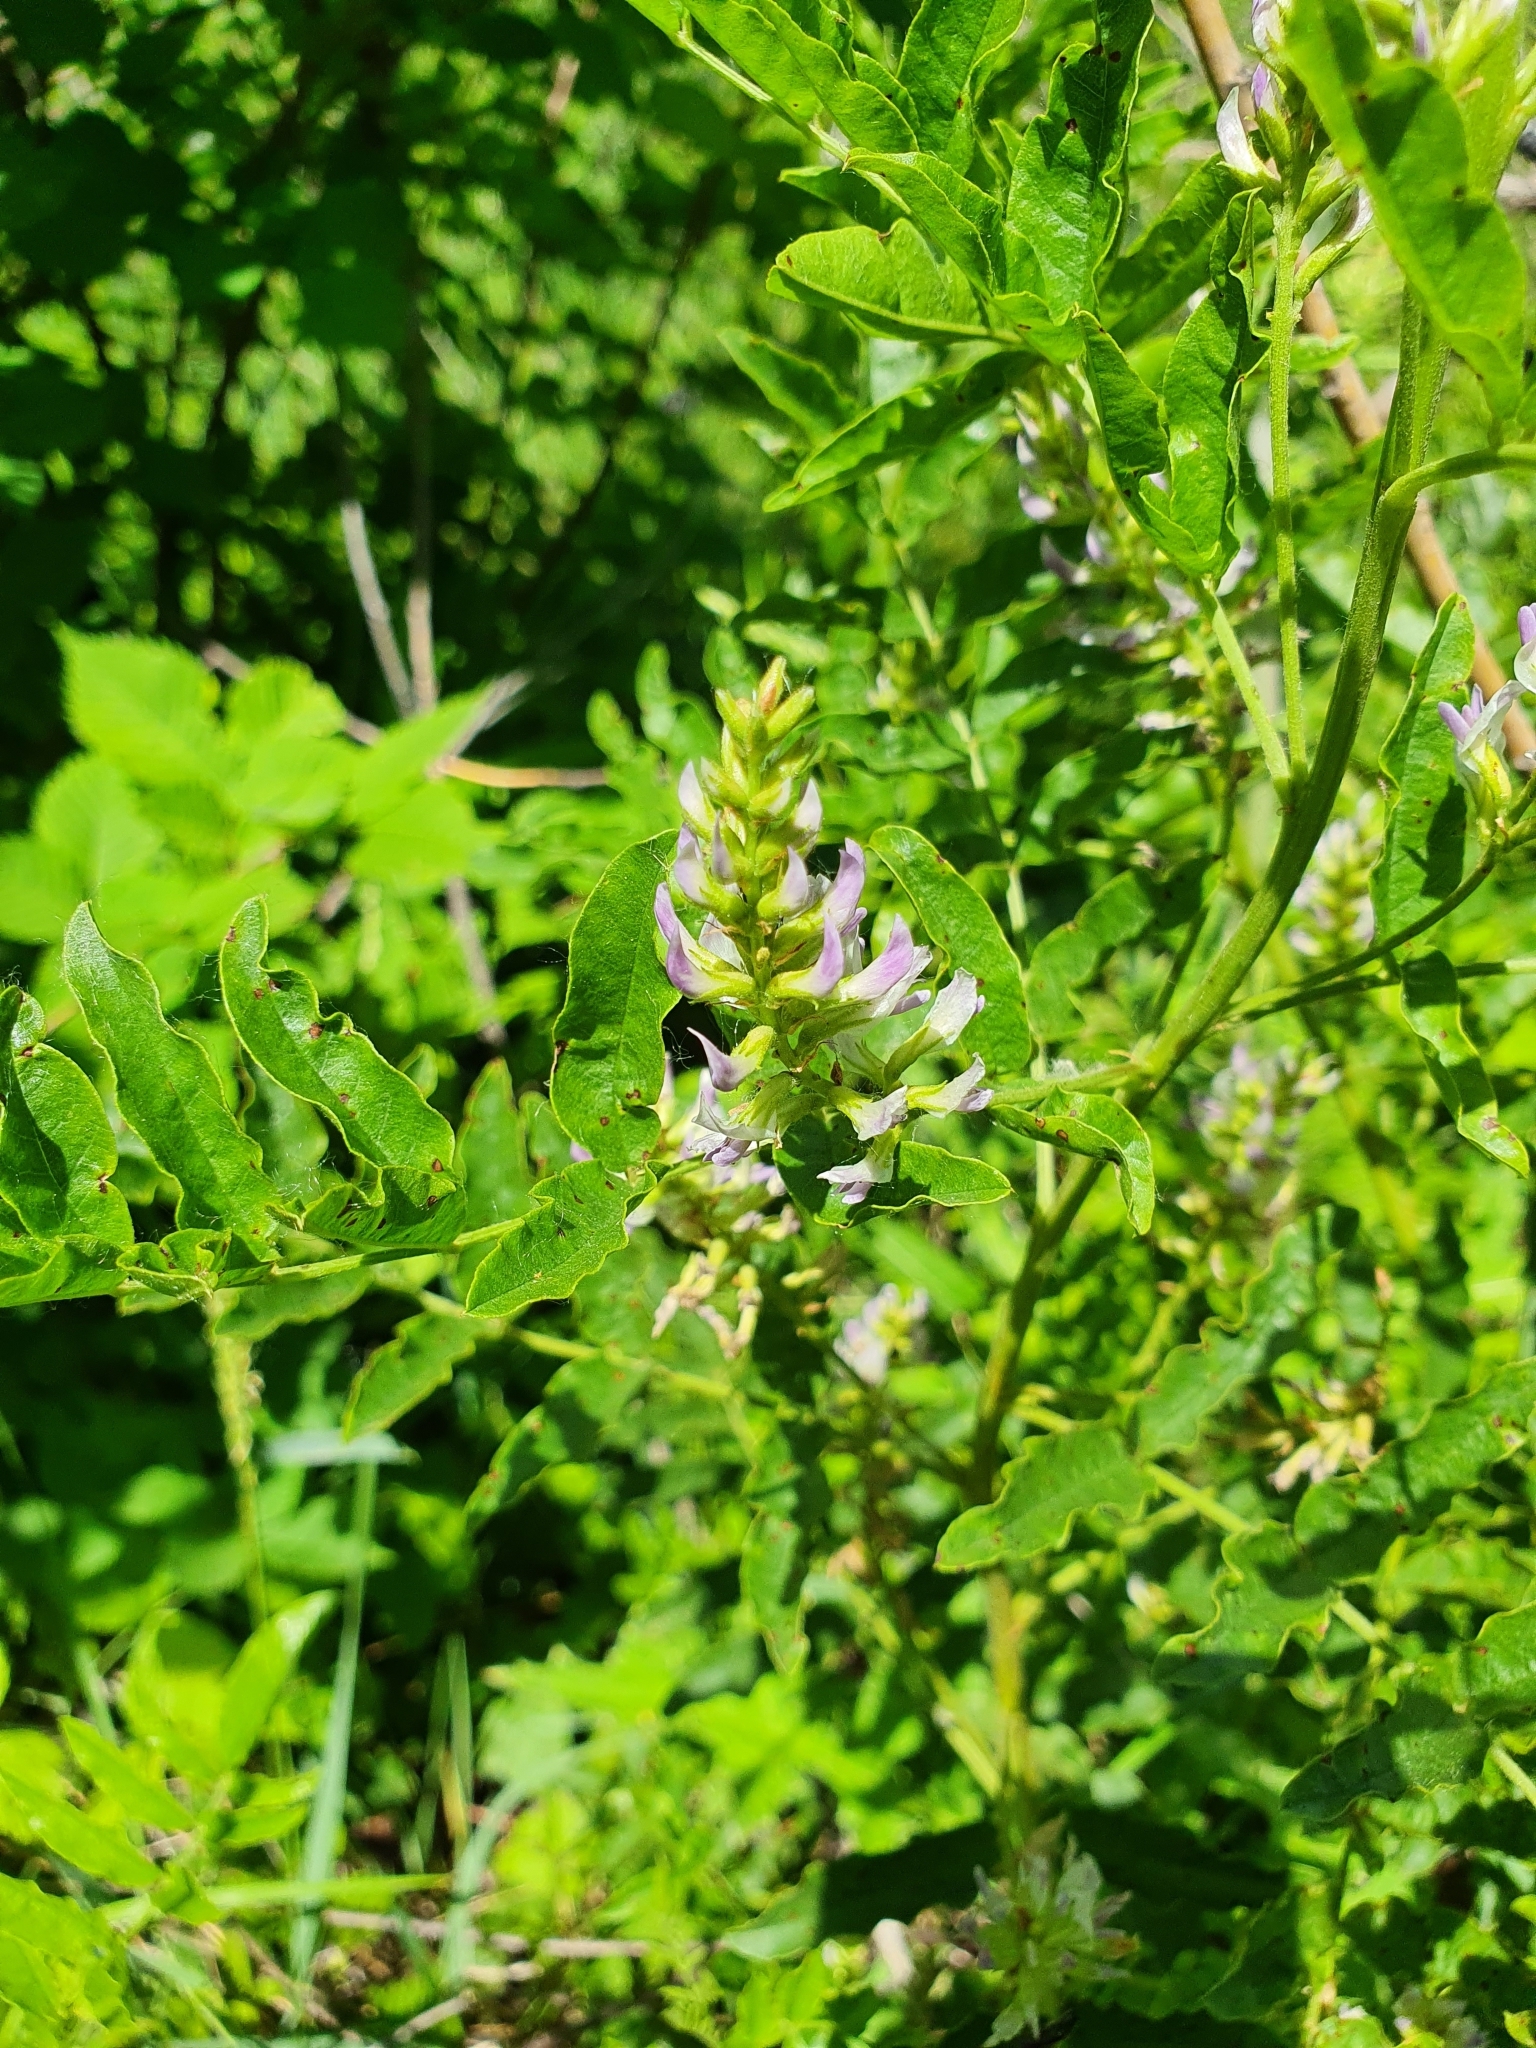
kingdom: Plantae
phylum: Tracheophyta
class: Magnoliopsida
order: Fabales
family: Fabaceae
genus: Glycyrrhiza
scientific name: Glycyrrhiza glabra
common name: Liquorice
